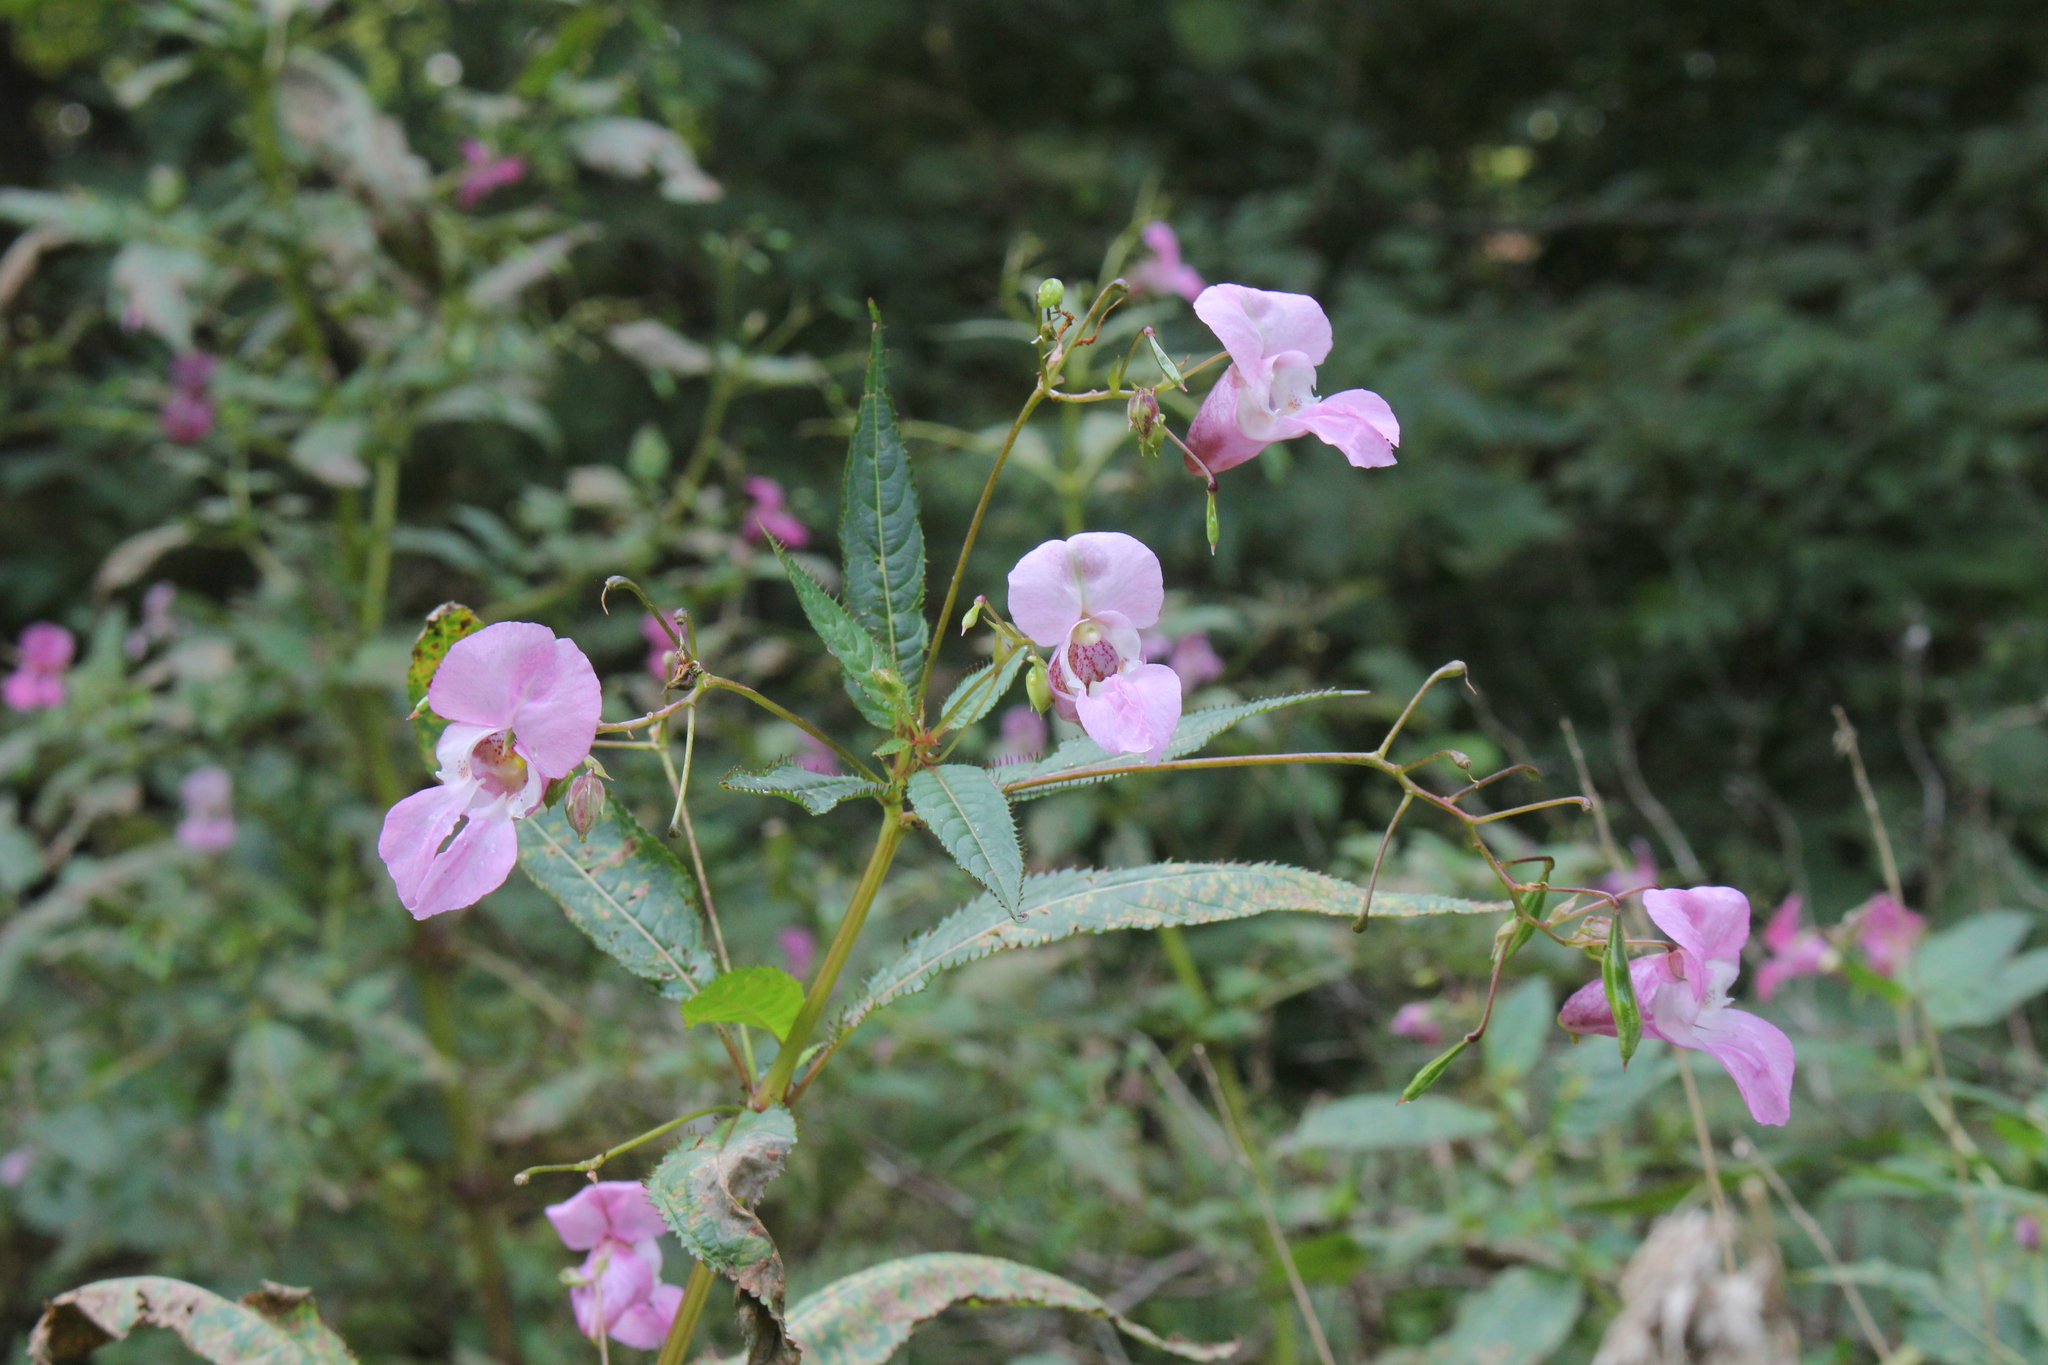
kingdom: Plantae
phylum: Tracheophyta
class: Magnoliopsida
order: Ericales
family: Balsaminaceae
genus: Impatiens
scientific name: Impatiens glandulifera
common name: Himalayan balsam
